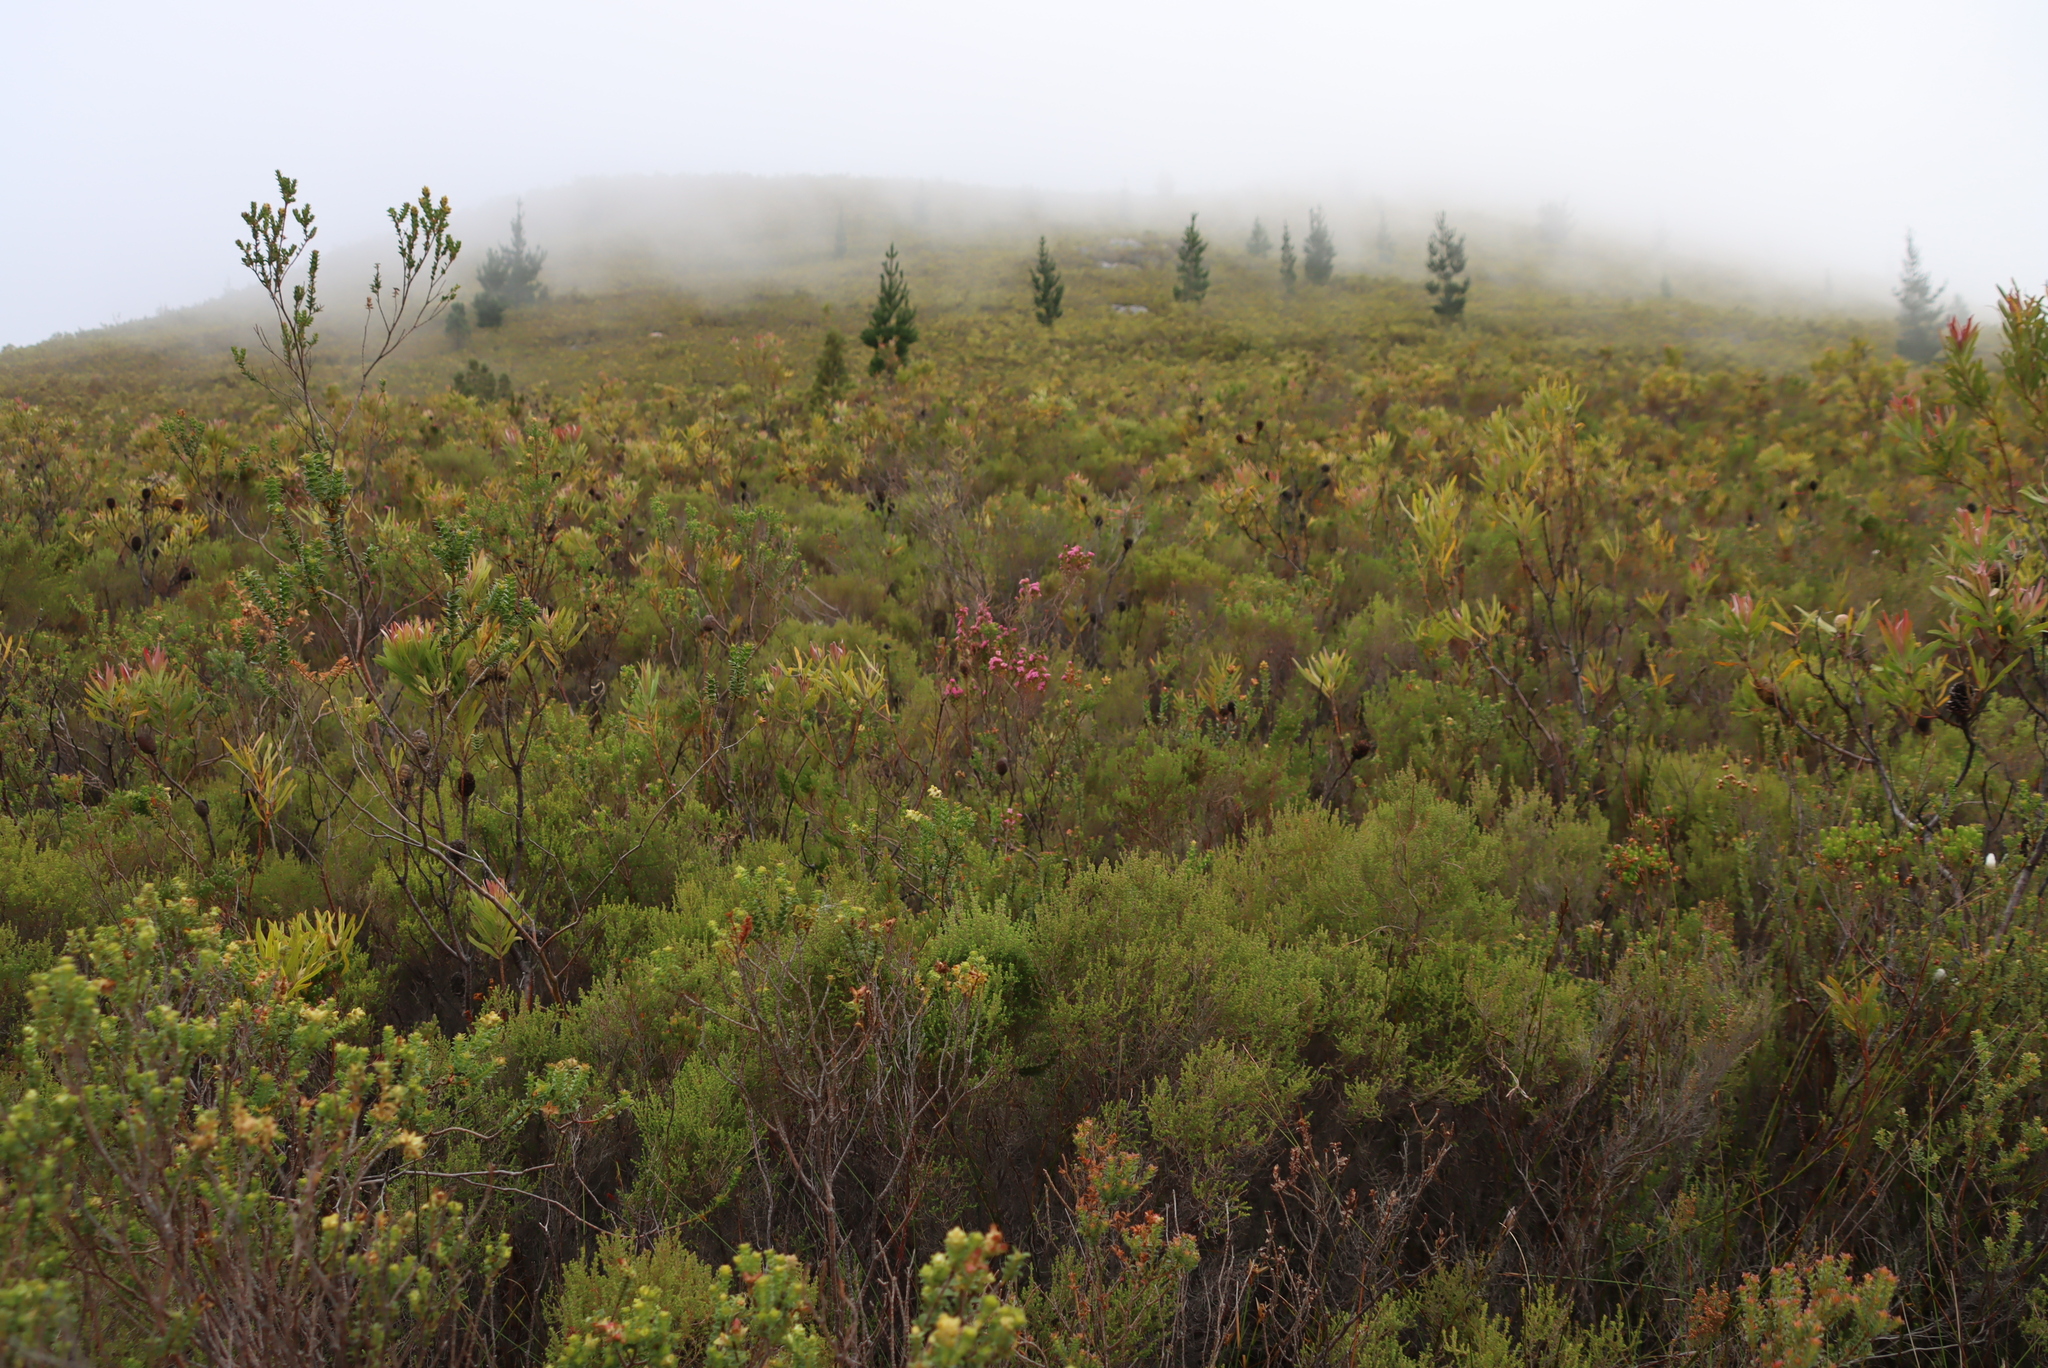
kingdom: Plantae
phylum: Tracheophyta
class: Pinopsida
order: Pinales
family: Pinaceae
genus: Pinus
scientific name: Pinus radiata
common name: Monterey pine
